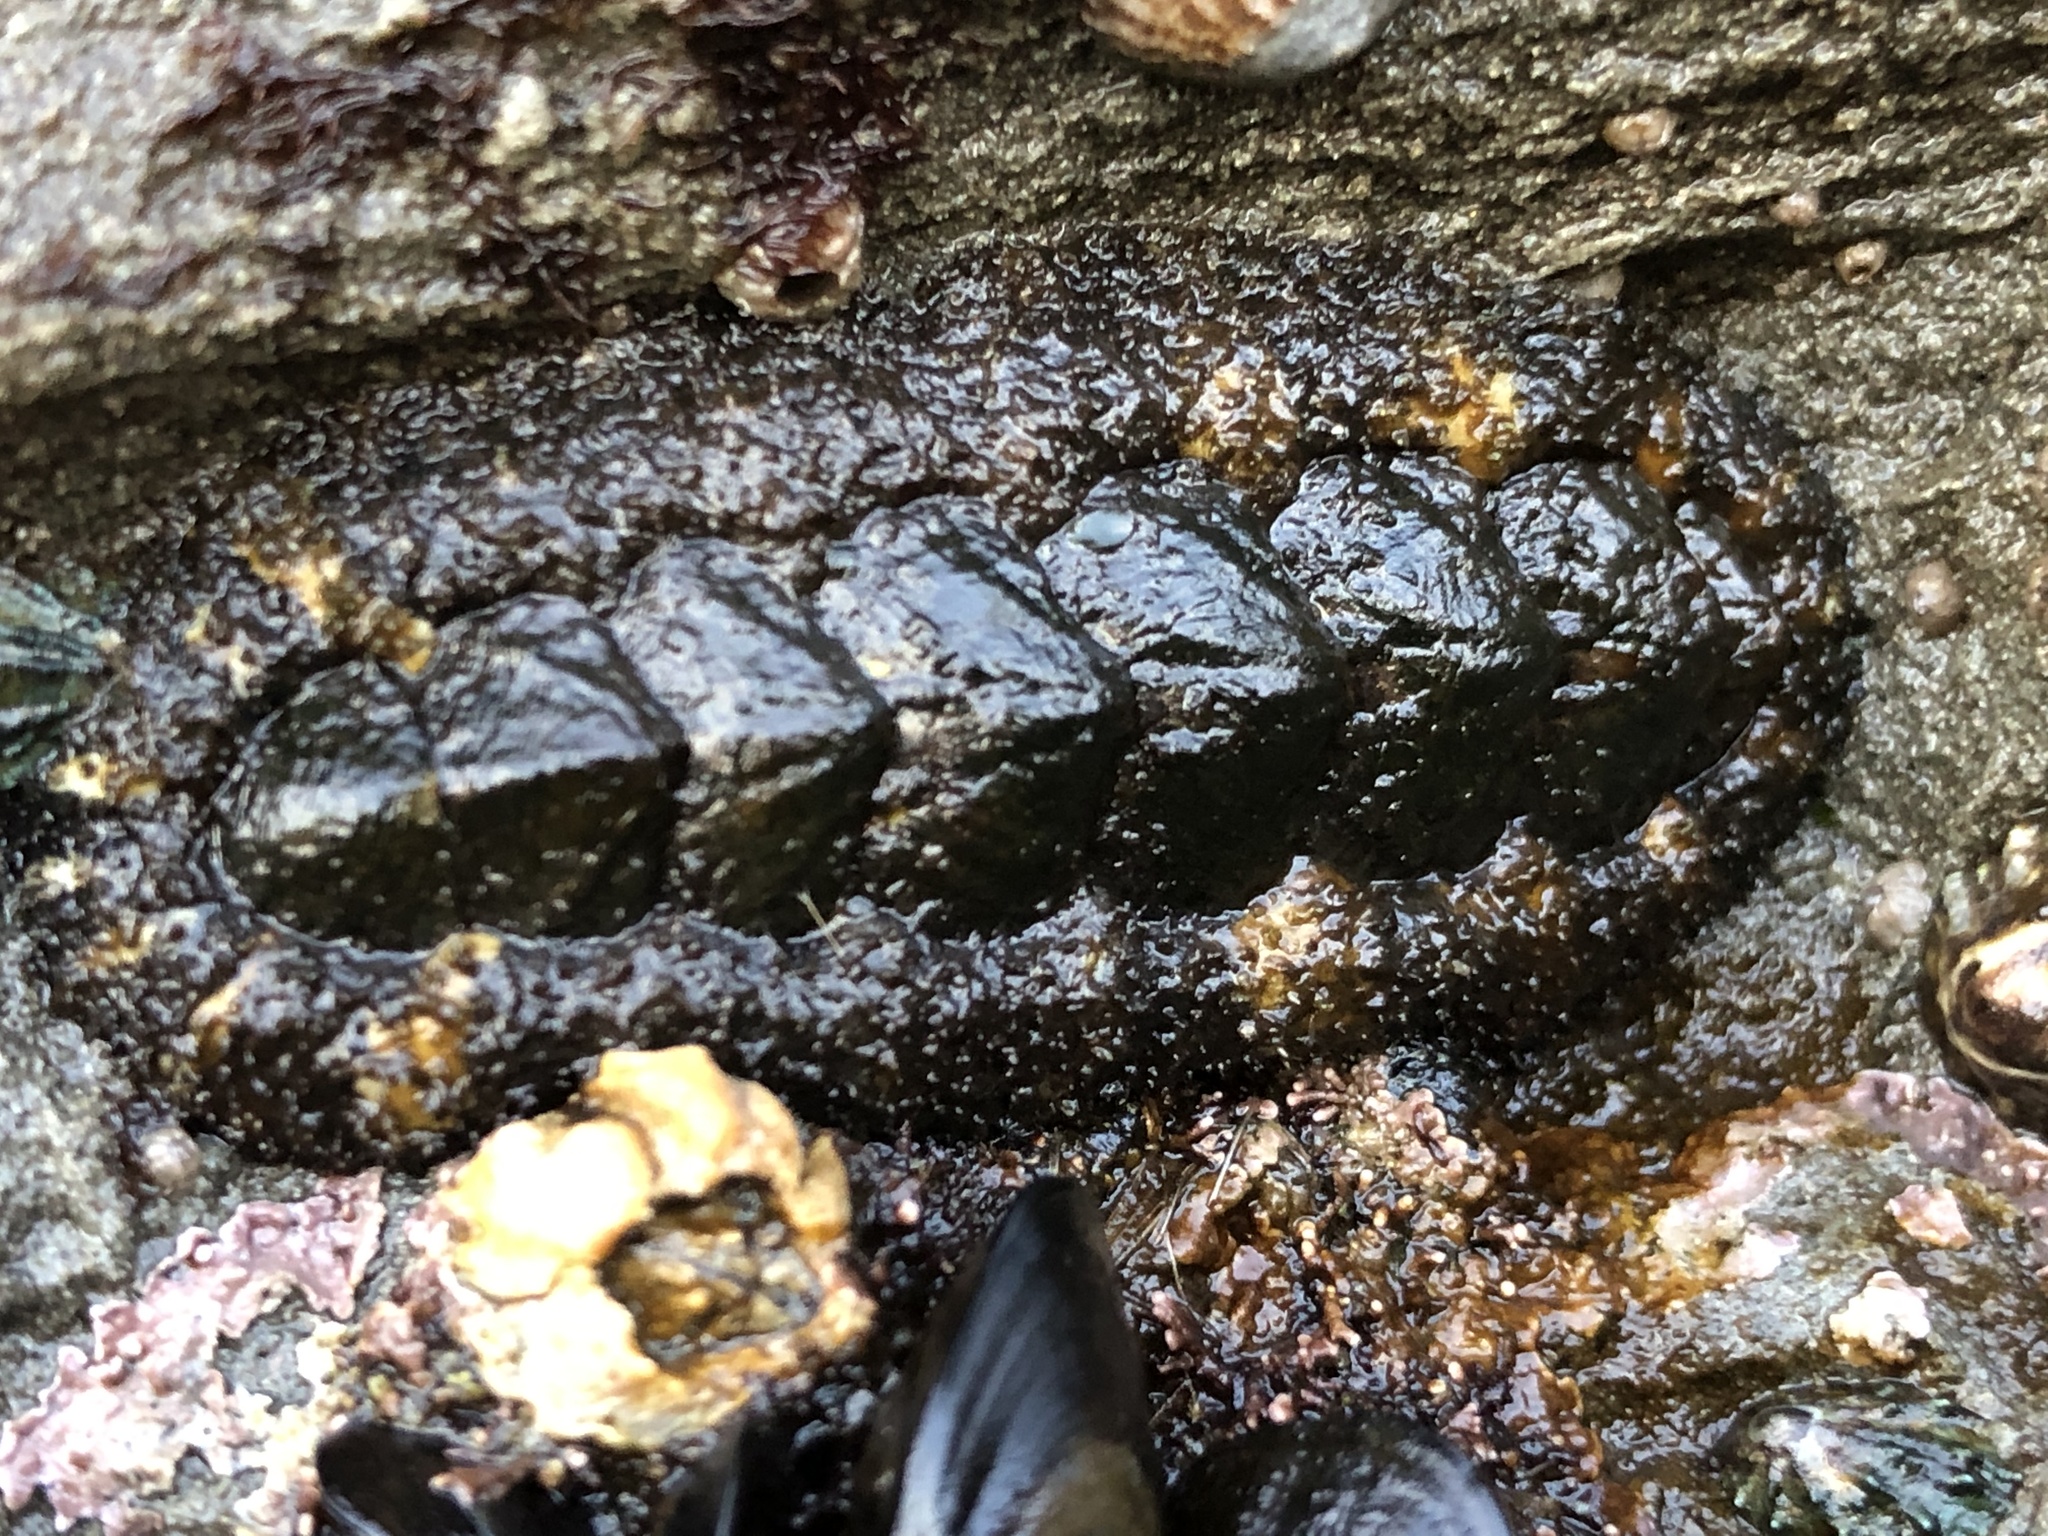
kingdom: Animalia
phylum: Mollusca
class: Polyplacophora
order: Chitonida
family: Tonicellidae
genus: Nuttallina
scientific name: Nuttallina californica
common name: California nuttall chiton
